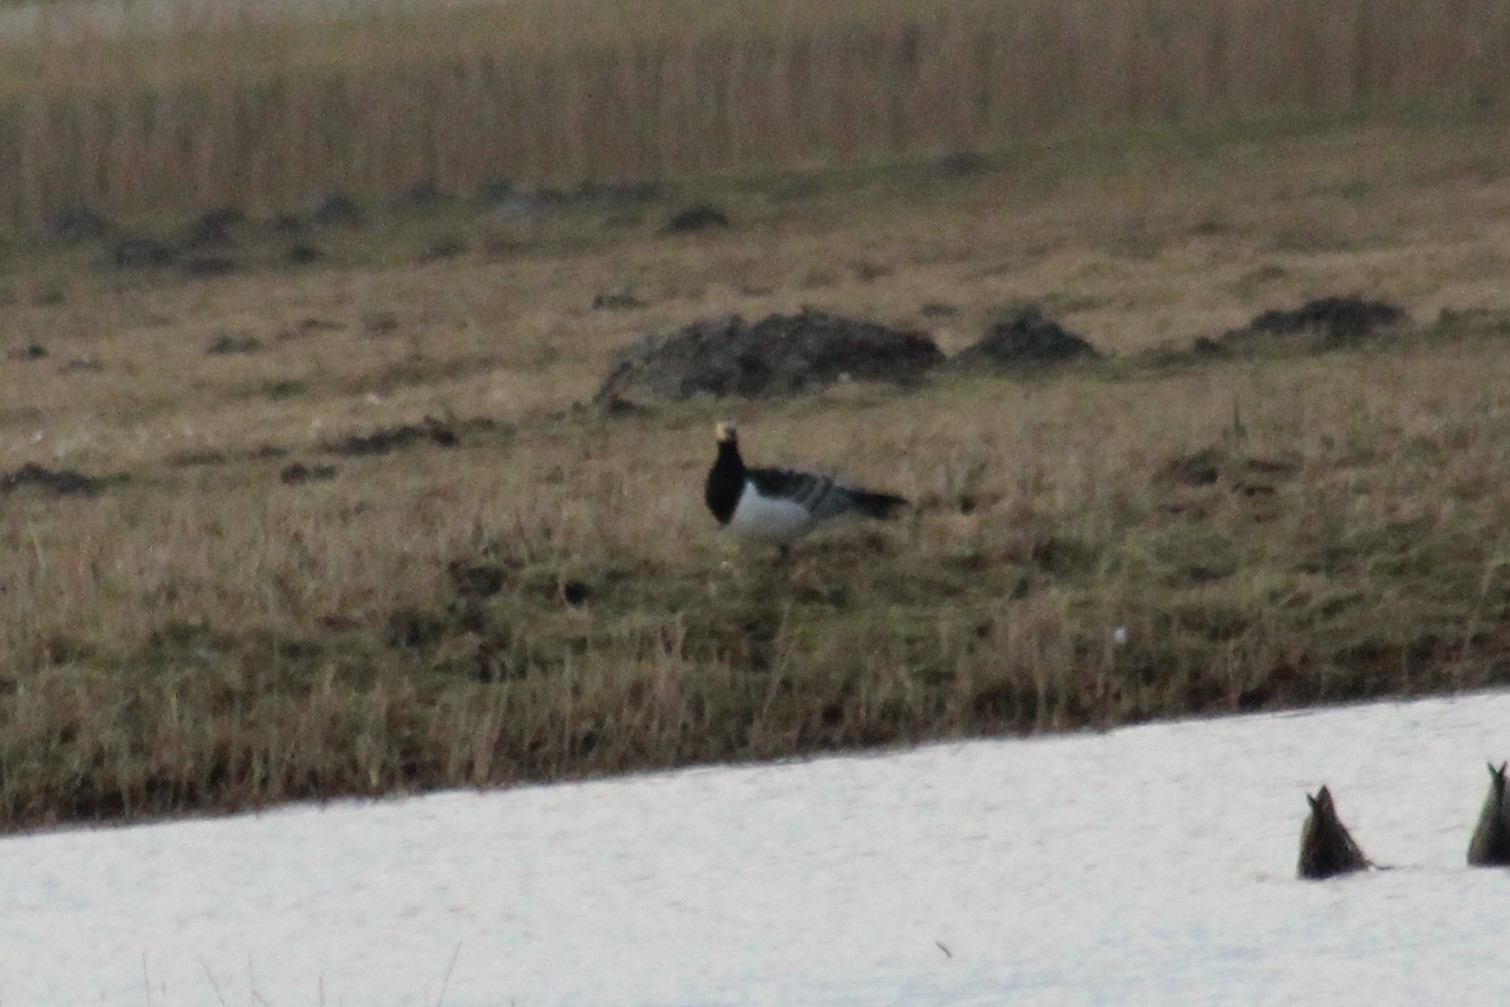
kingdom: Animalia
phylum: Chordata
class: Aves
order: Anseriformes
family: Anatidae
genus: Branta
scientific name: Branta leucopsis
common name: Barnacle goose
